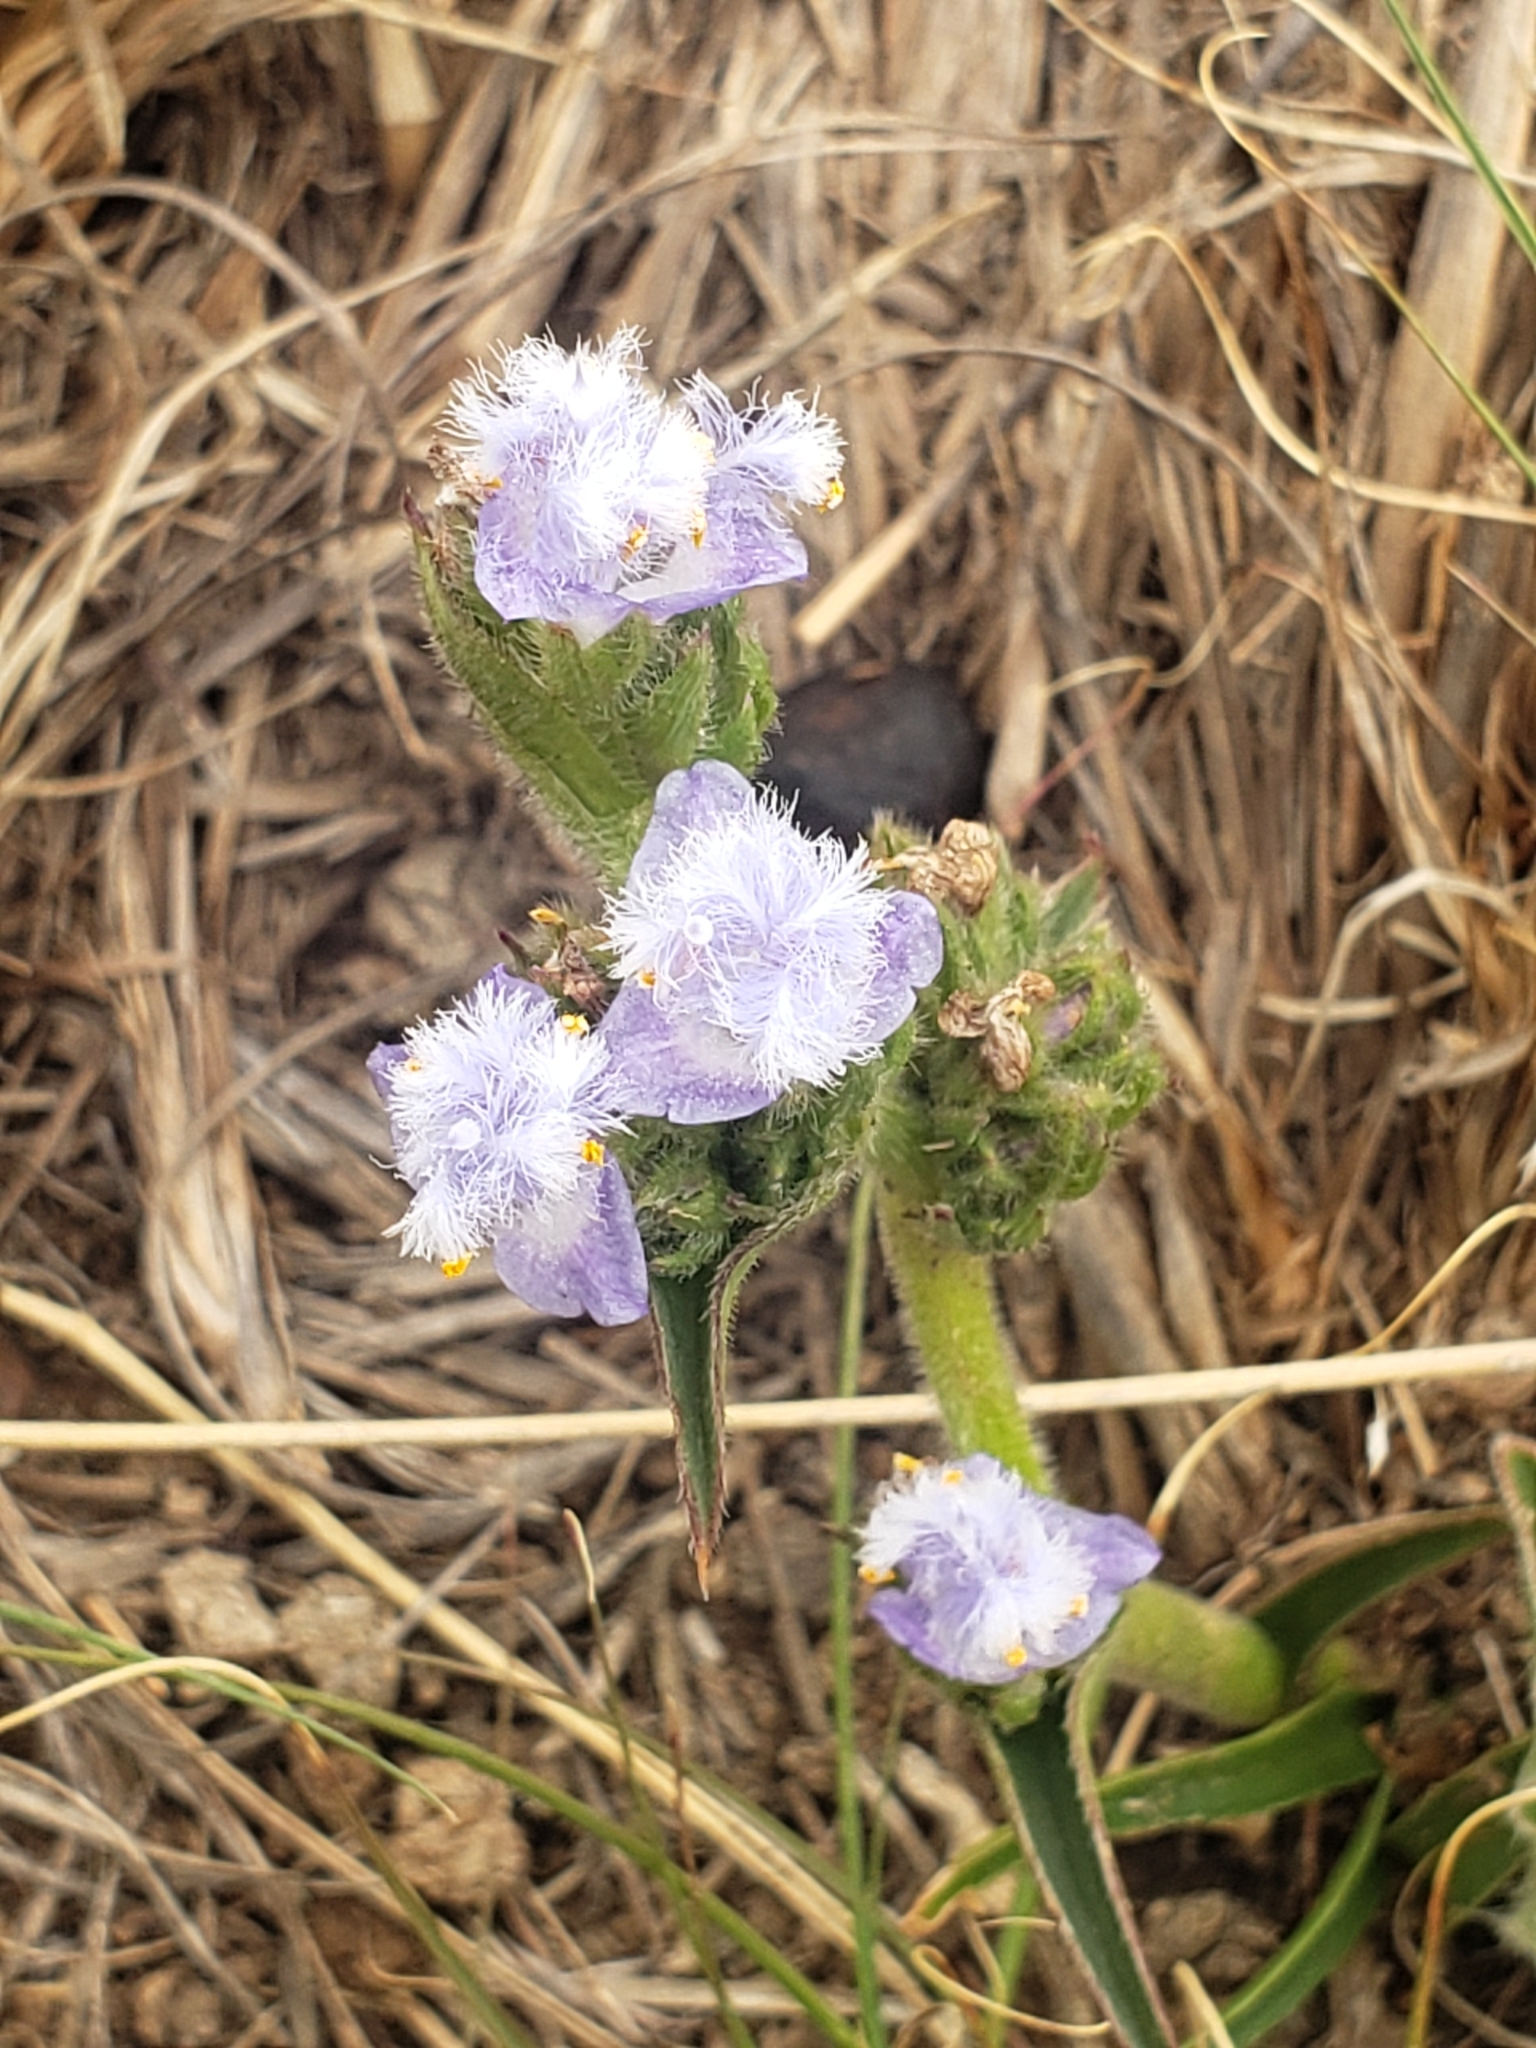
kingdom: Plantae
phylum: Tracheophyta
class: Liliopsida
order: Commelinales
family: Commelinaceae
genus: Cyanotis
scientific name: Cyanotis speciosa
